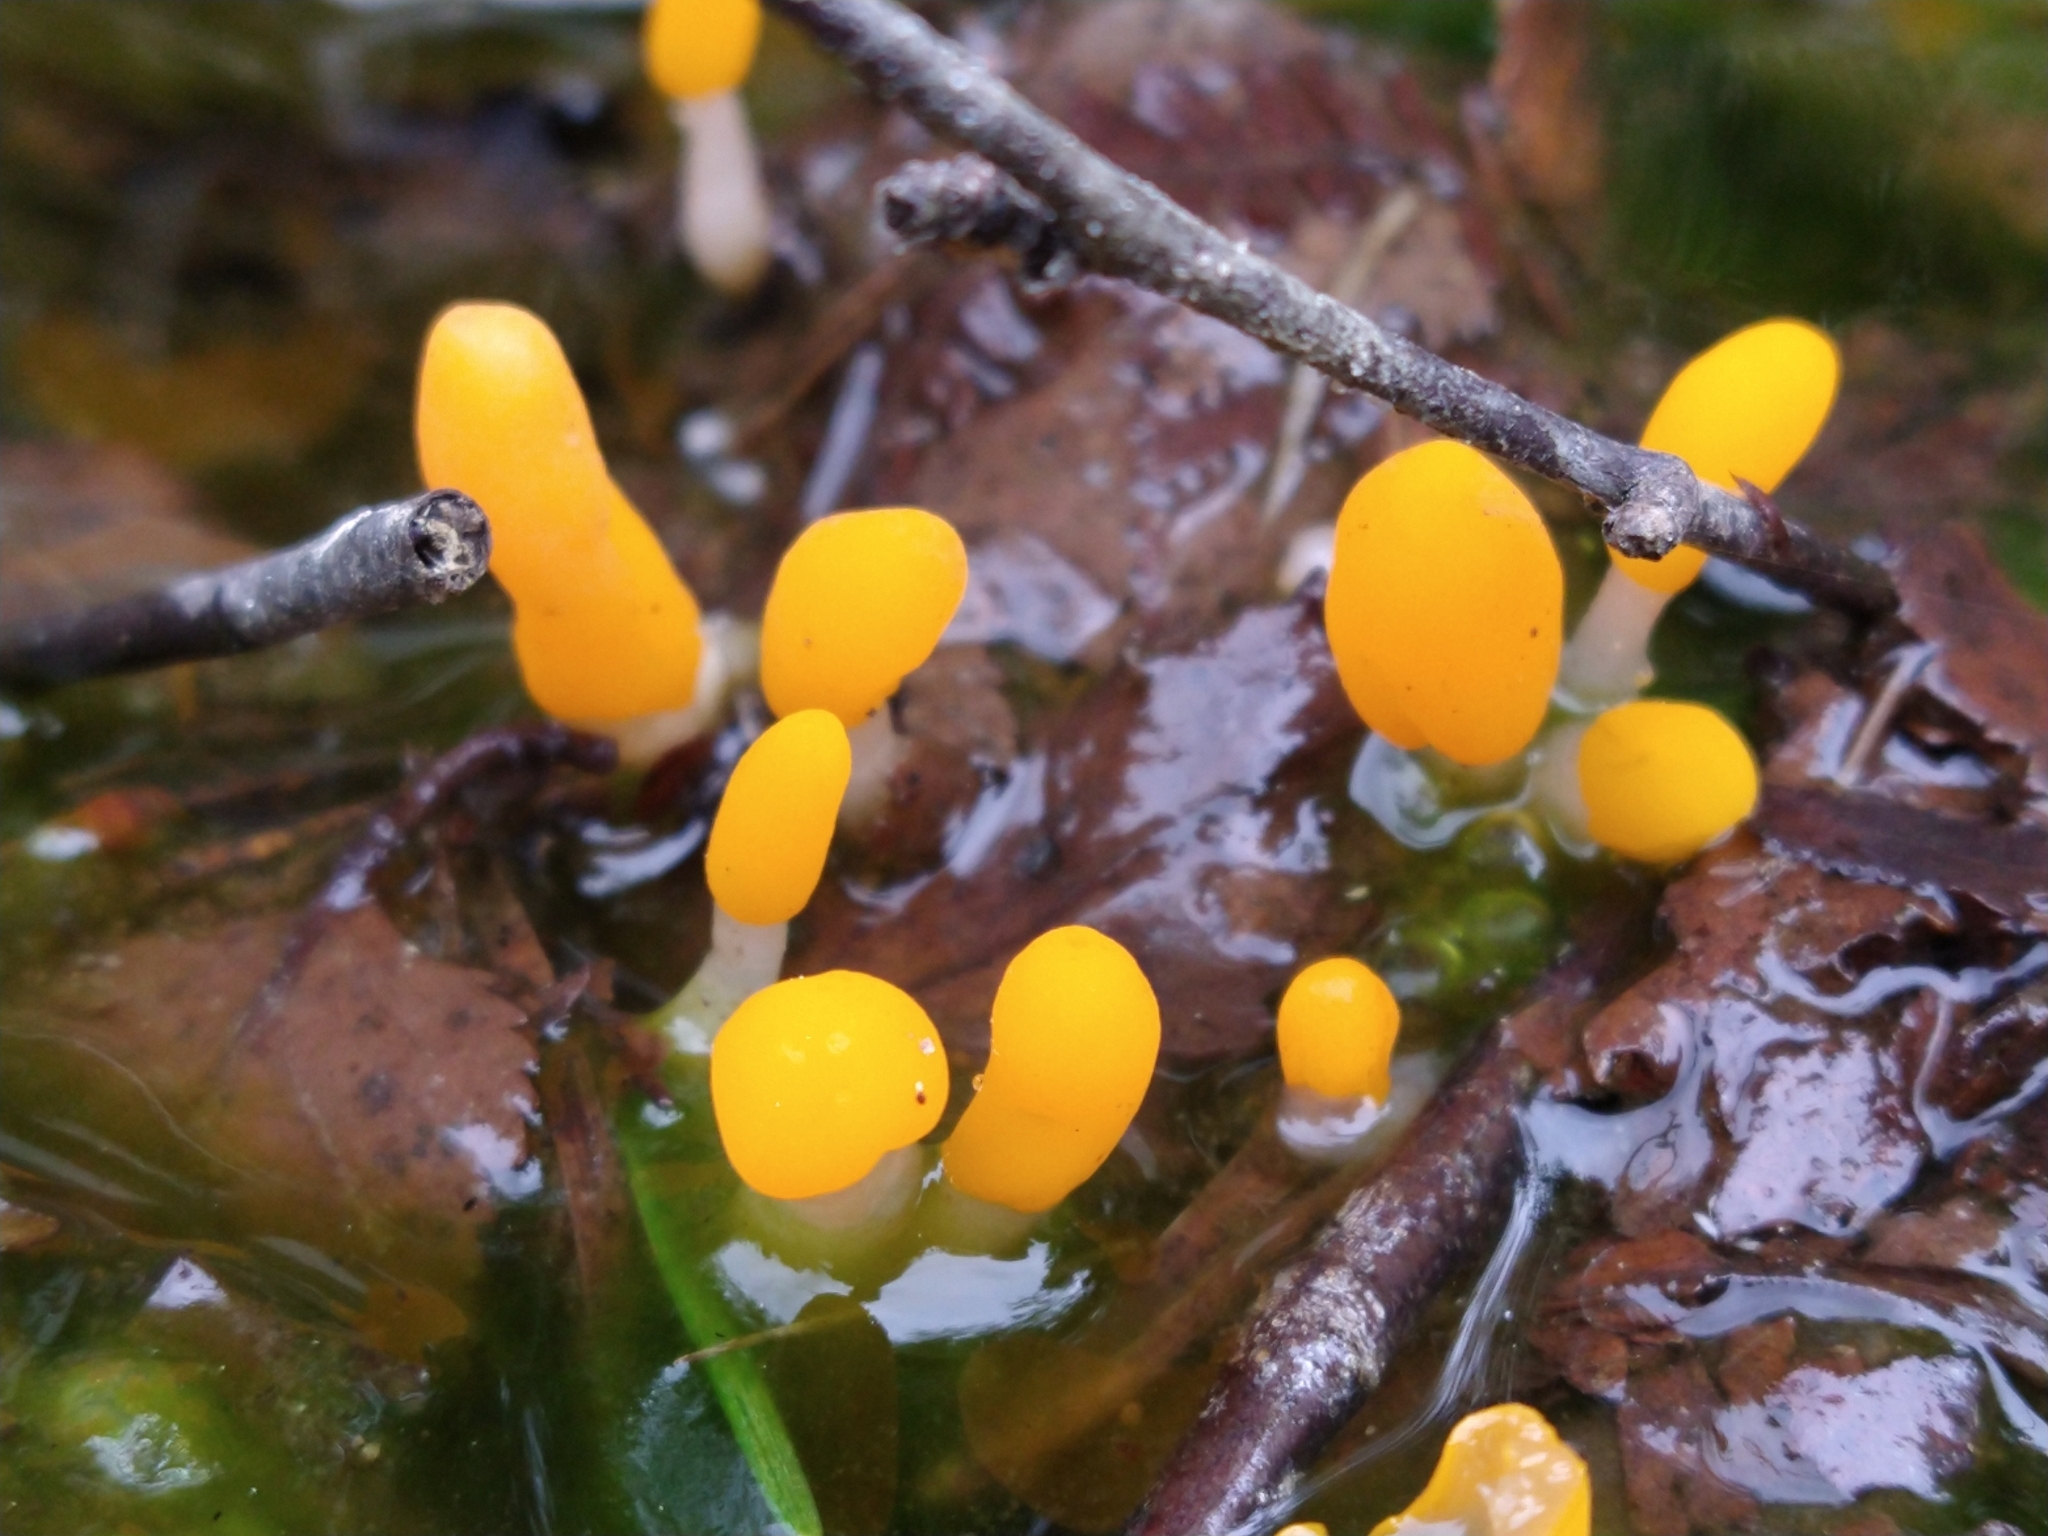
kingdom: Fungi
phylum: Ascomycota
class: Leotiomycetes
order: Helotiales
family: Cenangiaceae
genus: Mitrula
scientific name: Mitrula paludosa
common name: Bog beacon
